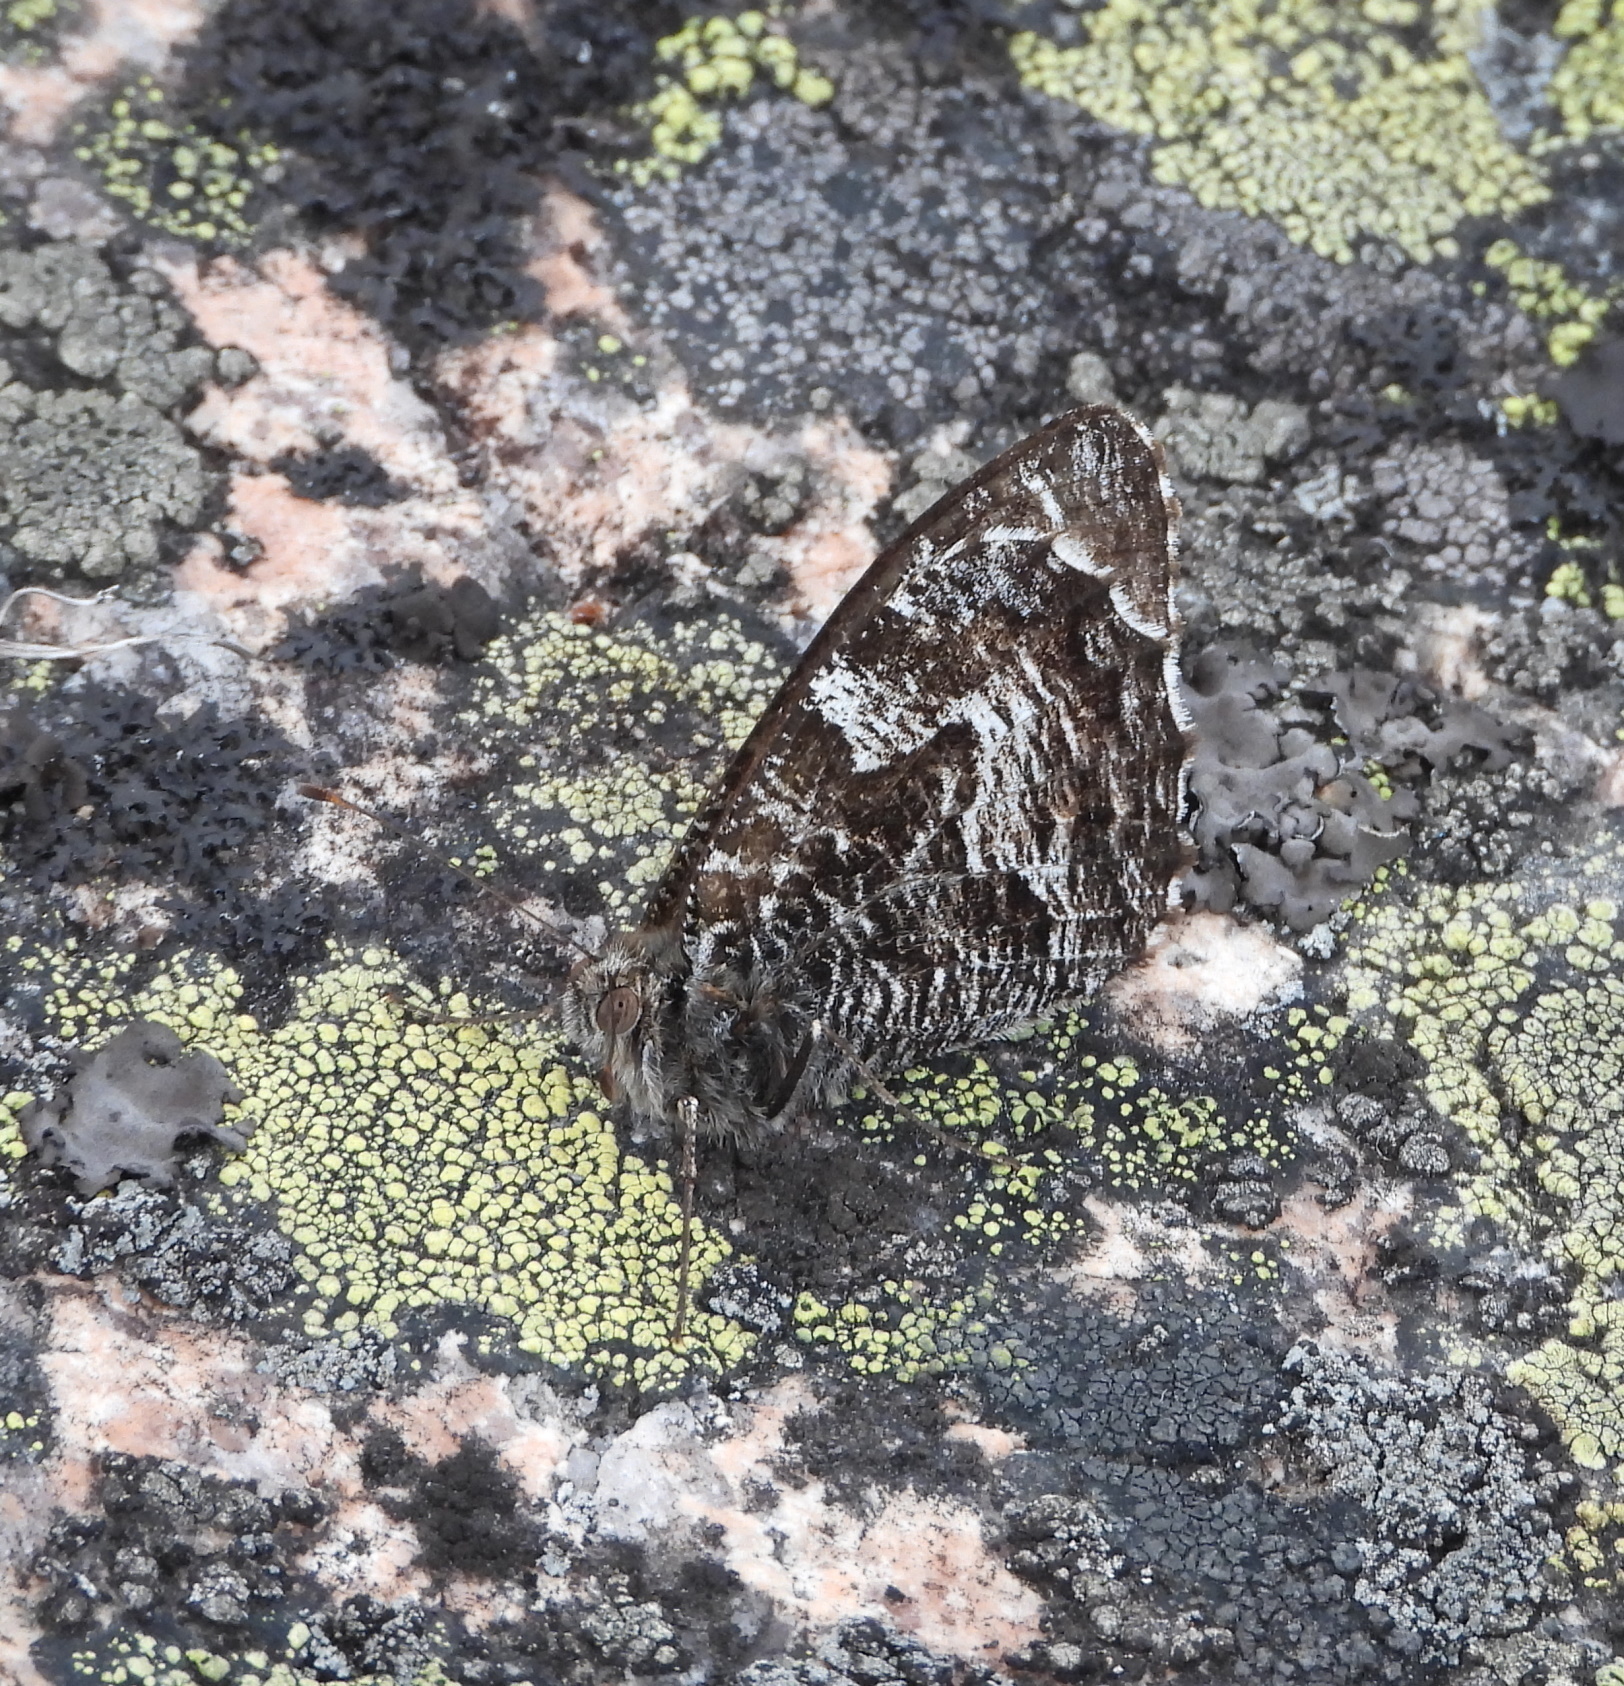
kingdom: Animalia
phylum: Arthropoda
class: Insecta
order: Lepidoptera
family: Nymphalidae
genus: Hipparchia
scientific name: Hipparchia semele
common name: Grayling
